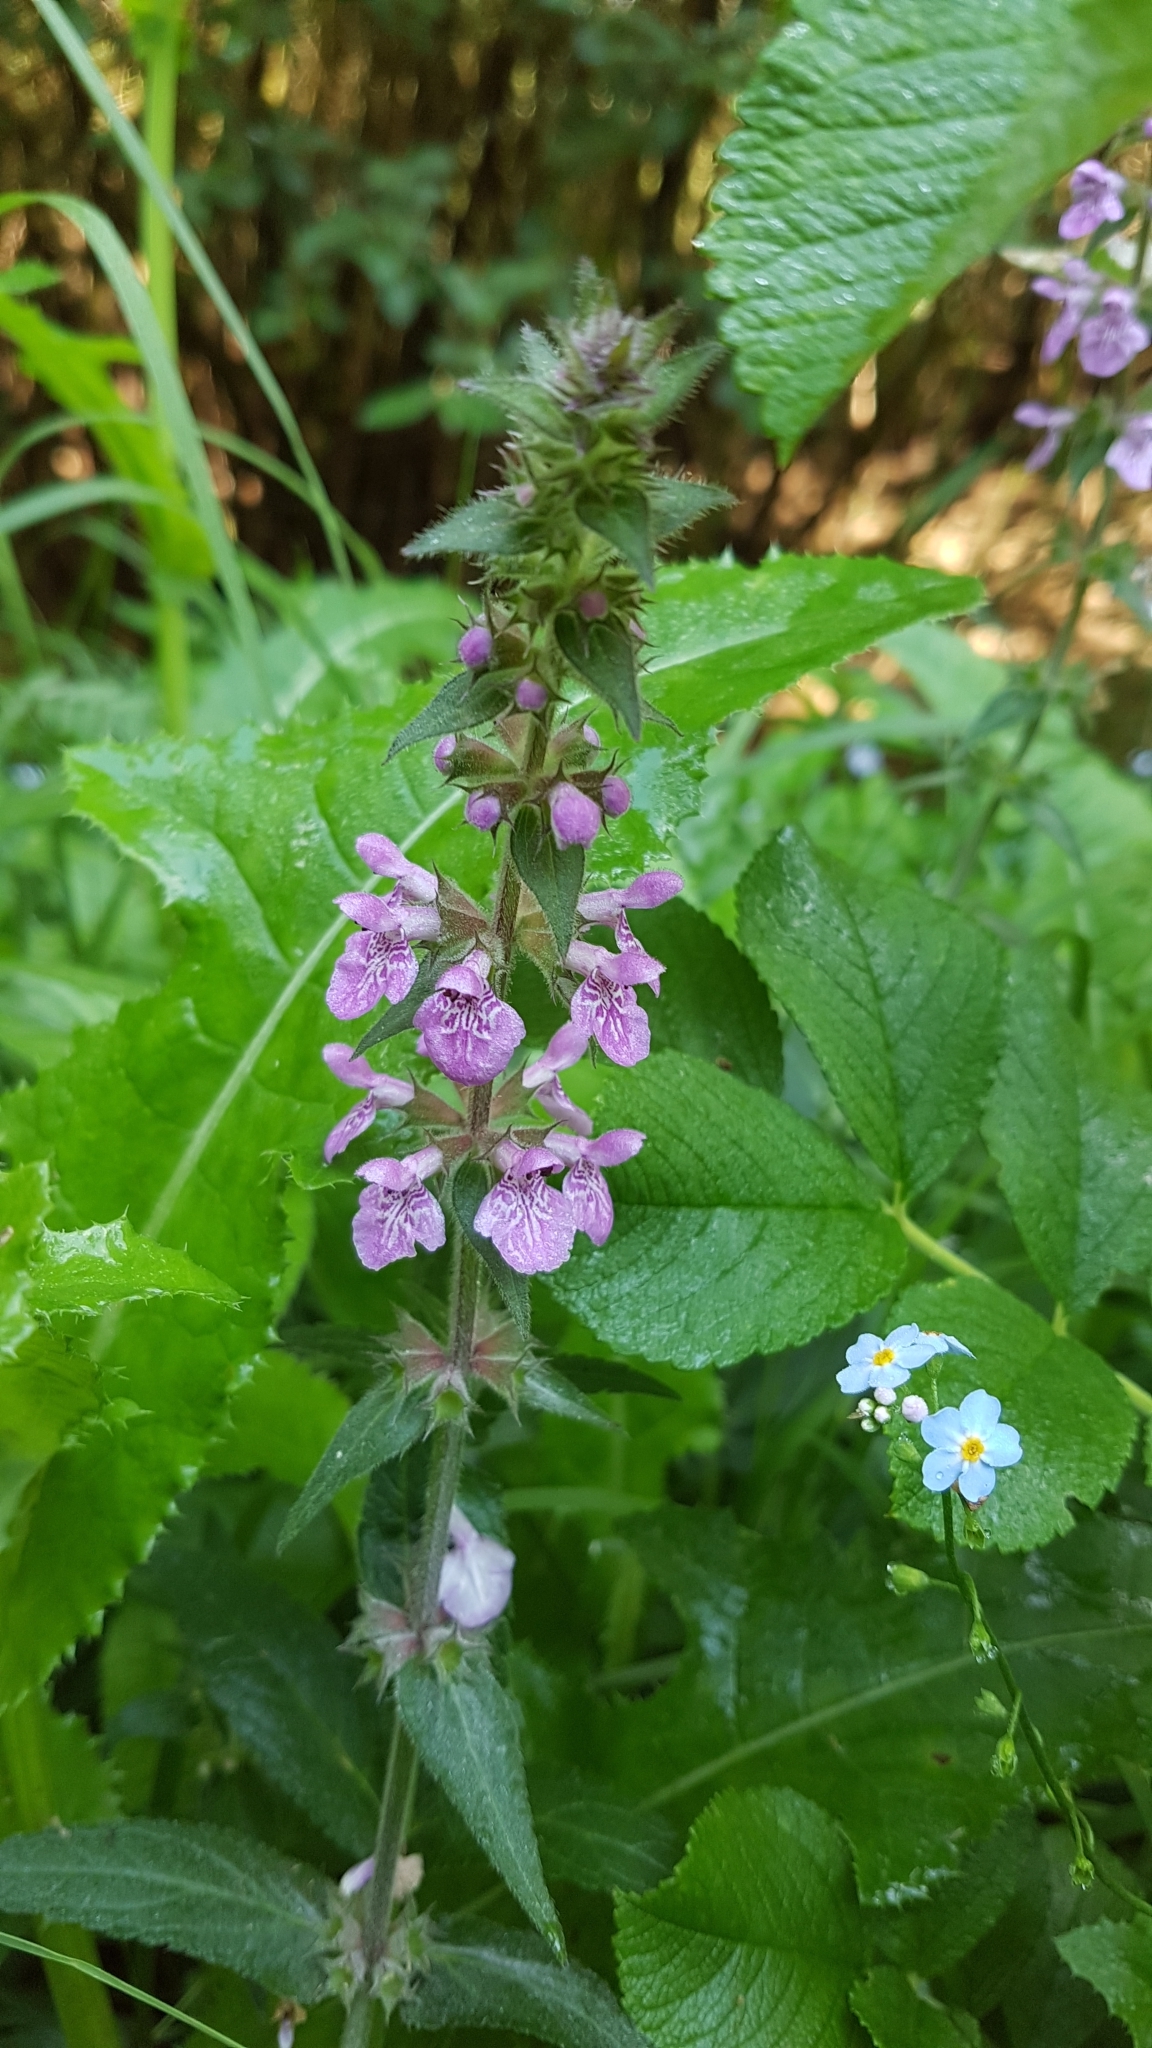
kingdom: Plantae
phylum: Tracheophyta
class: Magnoliopsida
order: Lamiales
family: Lamiaceae
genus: Stachys
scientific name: Stachys palustris
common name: Marsh woundwort
